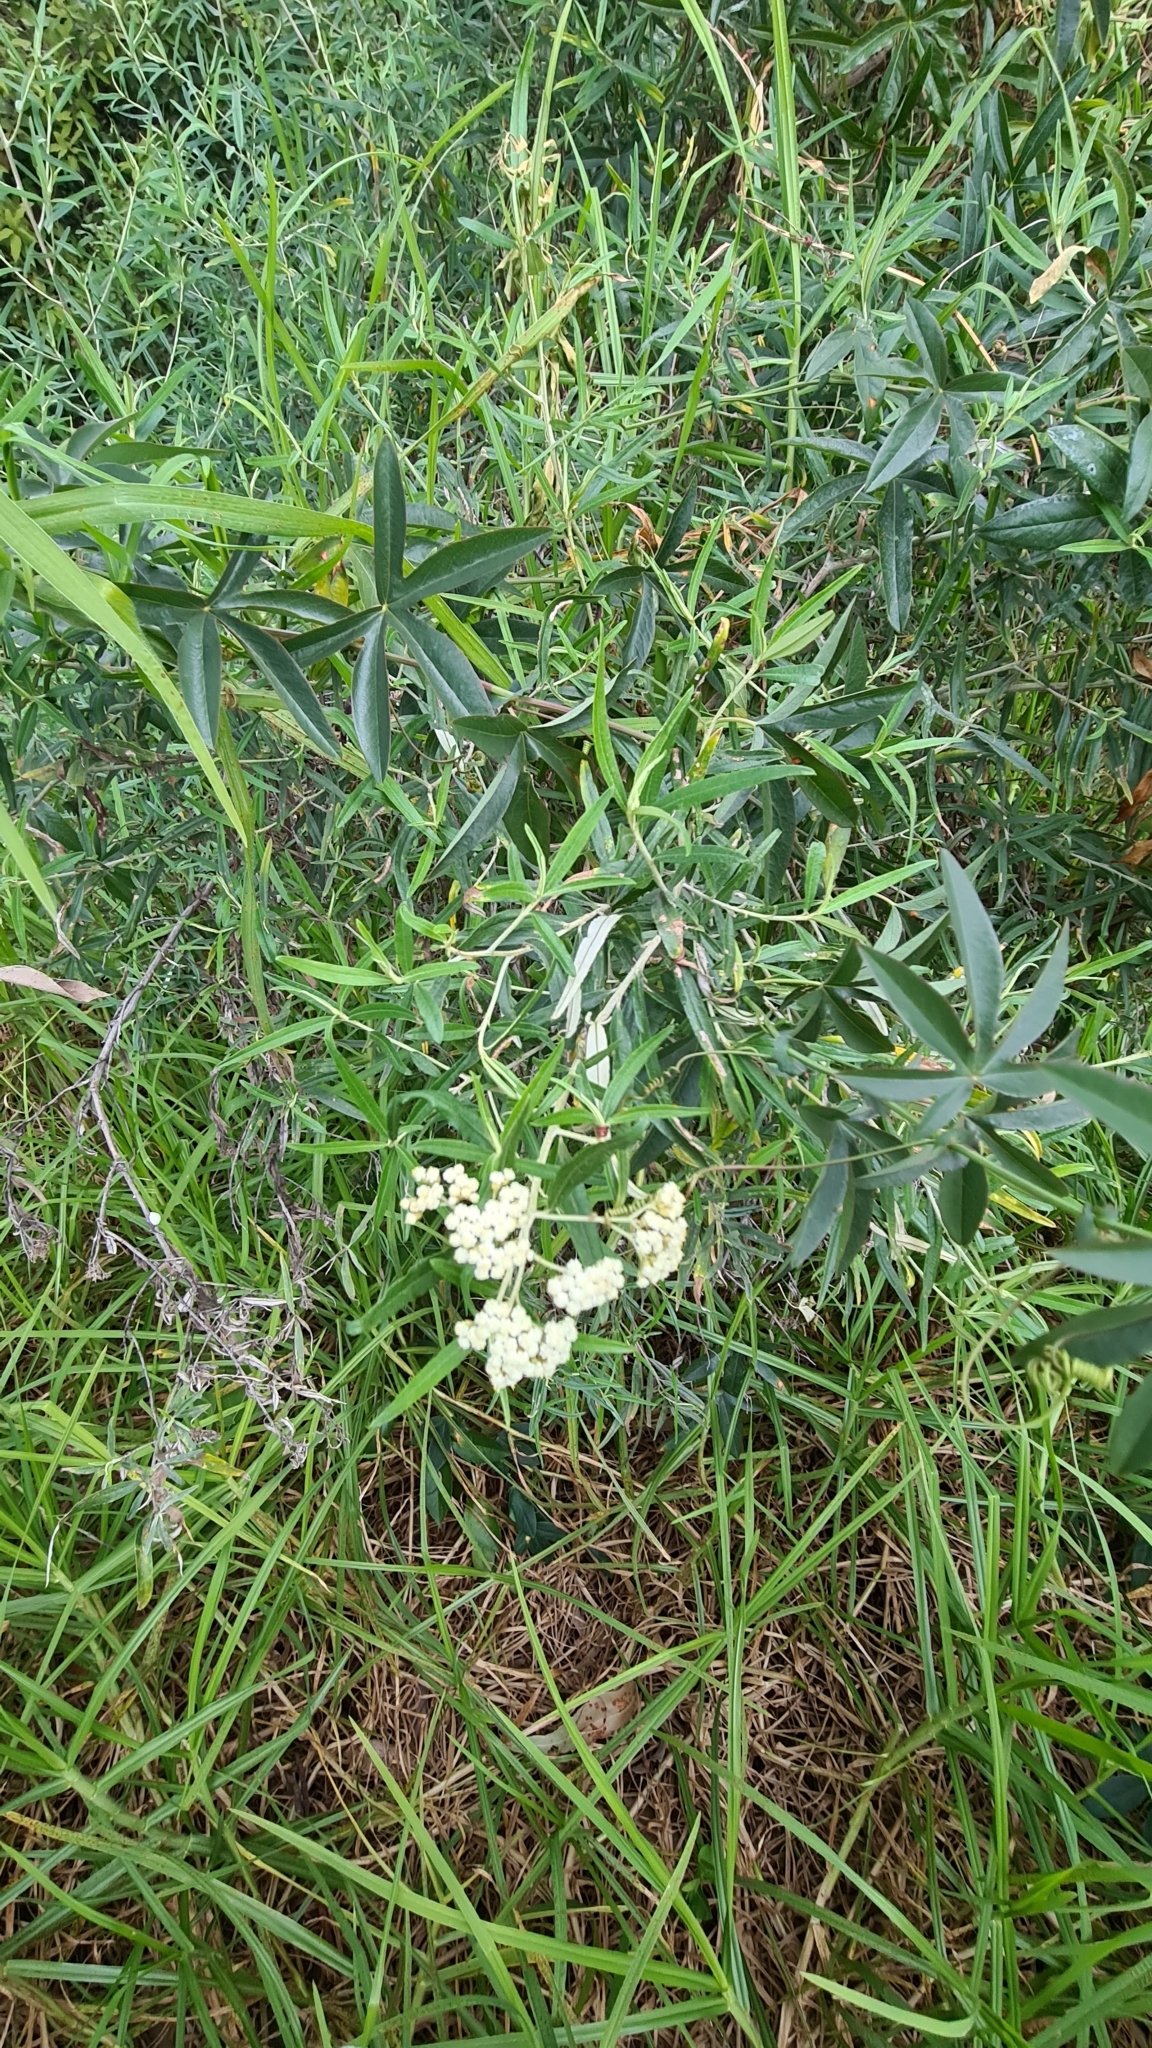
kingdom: Plantae
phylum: Tracheophyta
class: Magnoliopsida
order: Asterales
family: Asteraceae
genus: Ozothamnus
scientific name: Ozothamnus argophyllus
